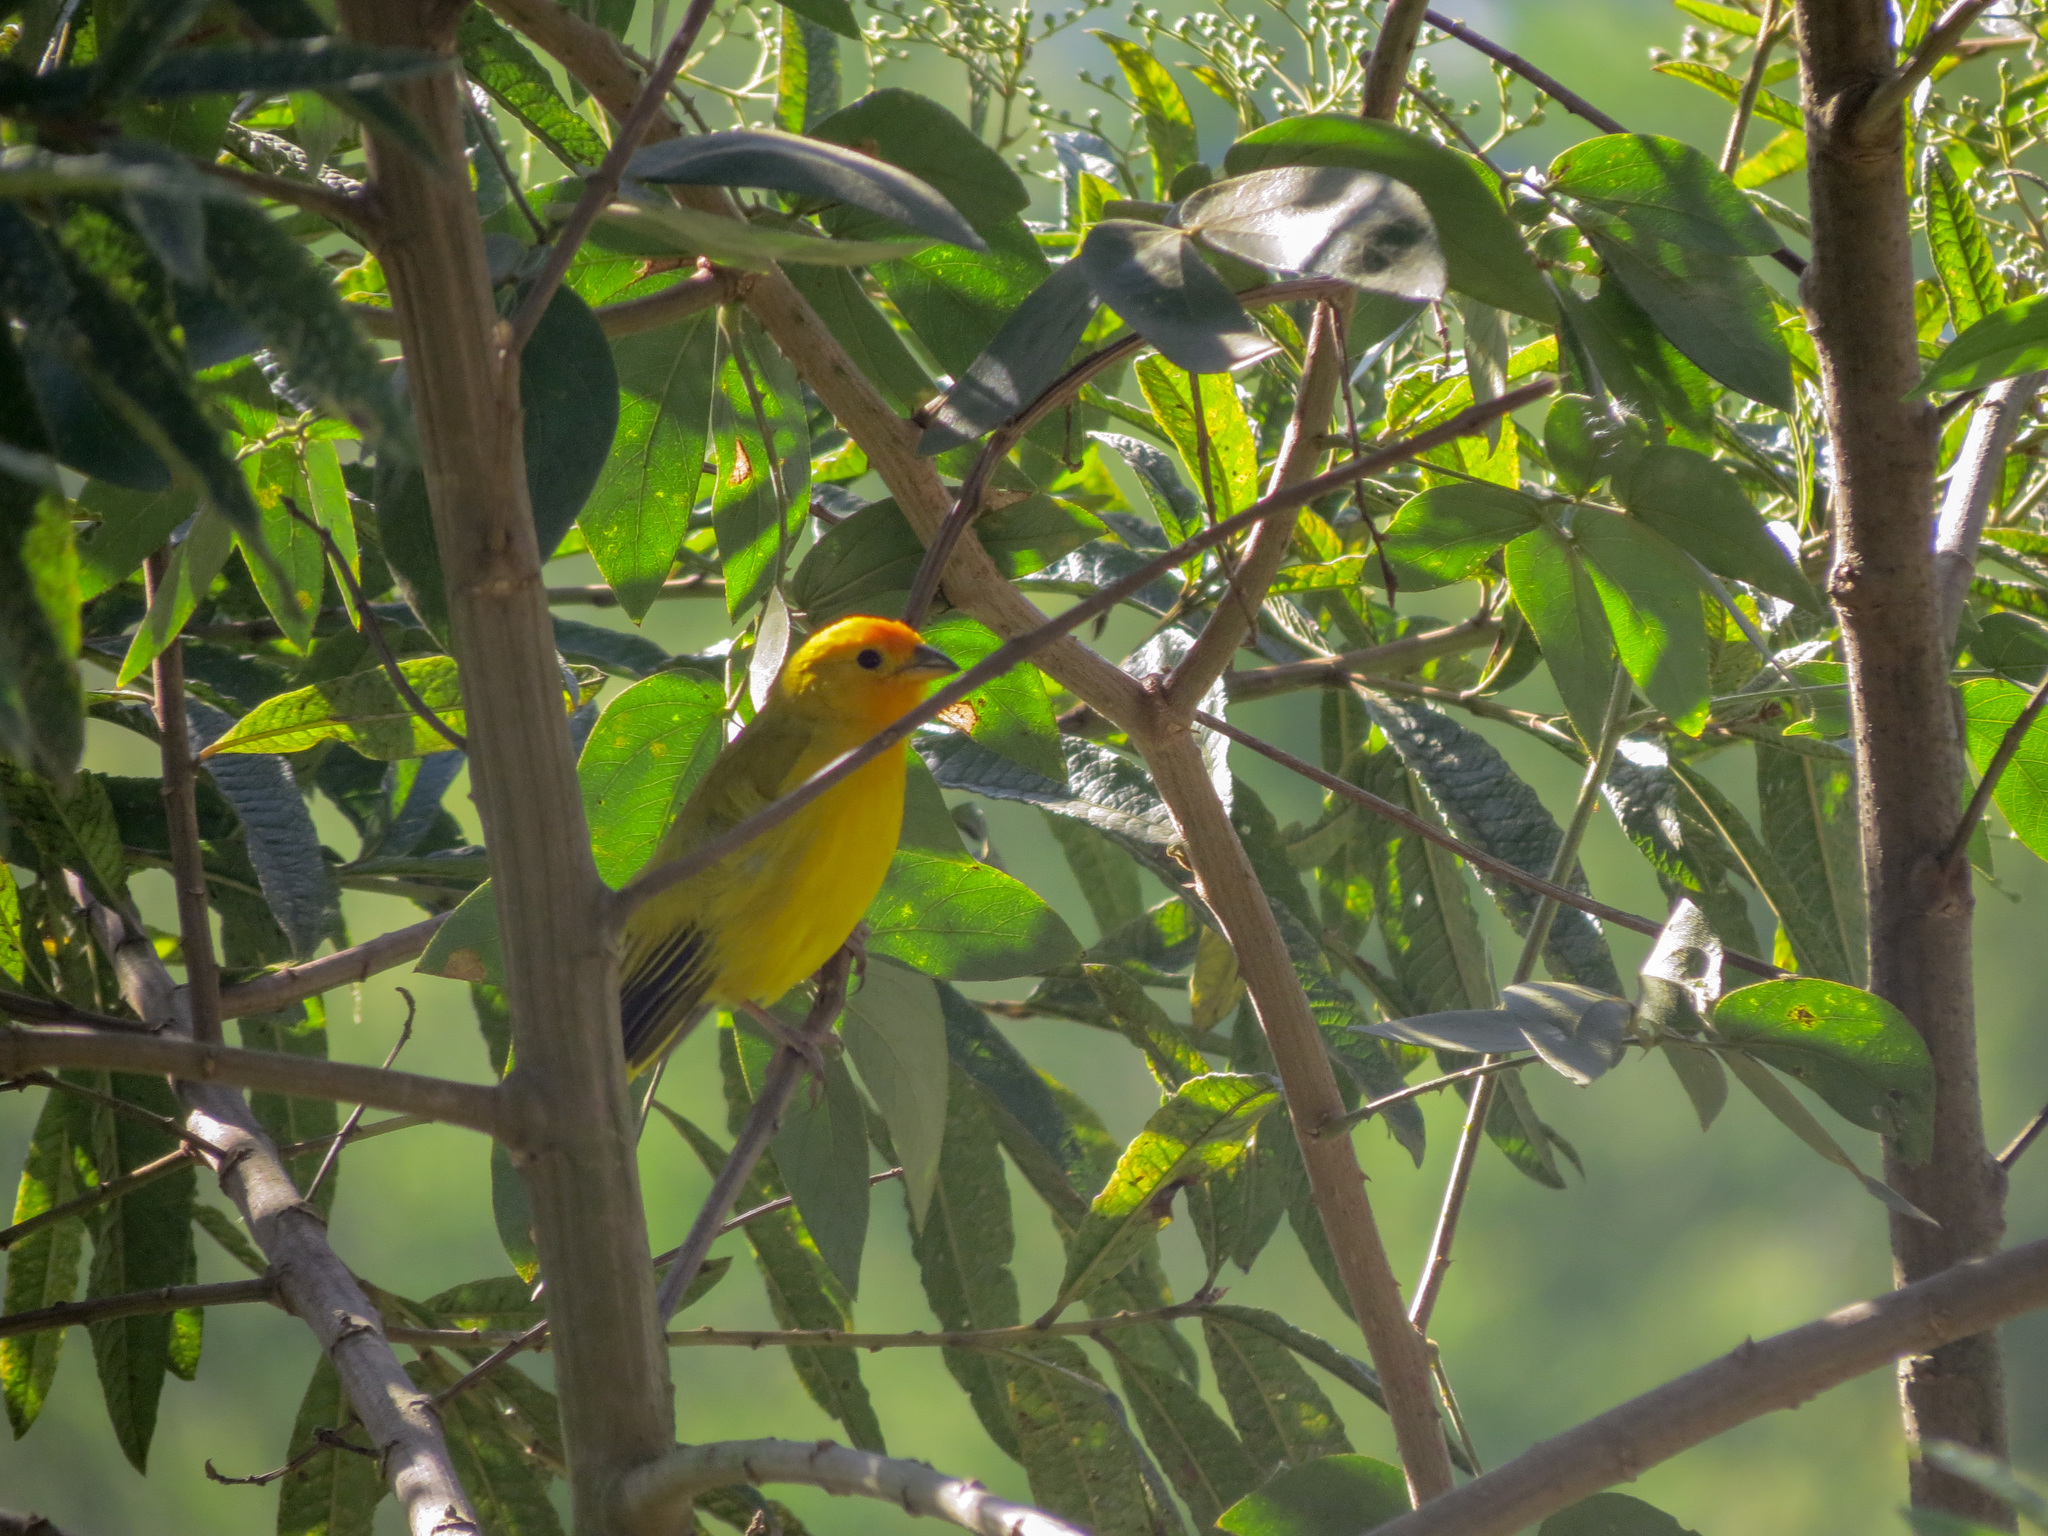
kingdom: Animalia
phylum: Chordata
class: Aves
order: Passeriformes
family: Thraupidae
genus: Sicalis
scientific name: Sicalis flaveola
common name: Saffron finch
